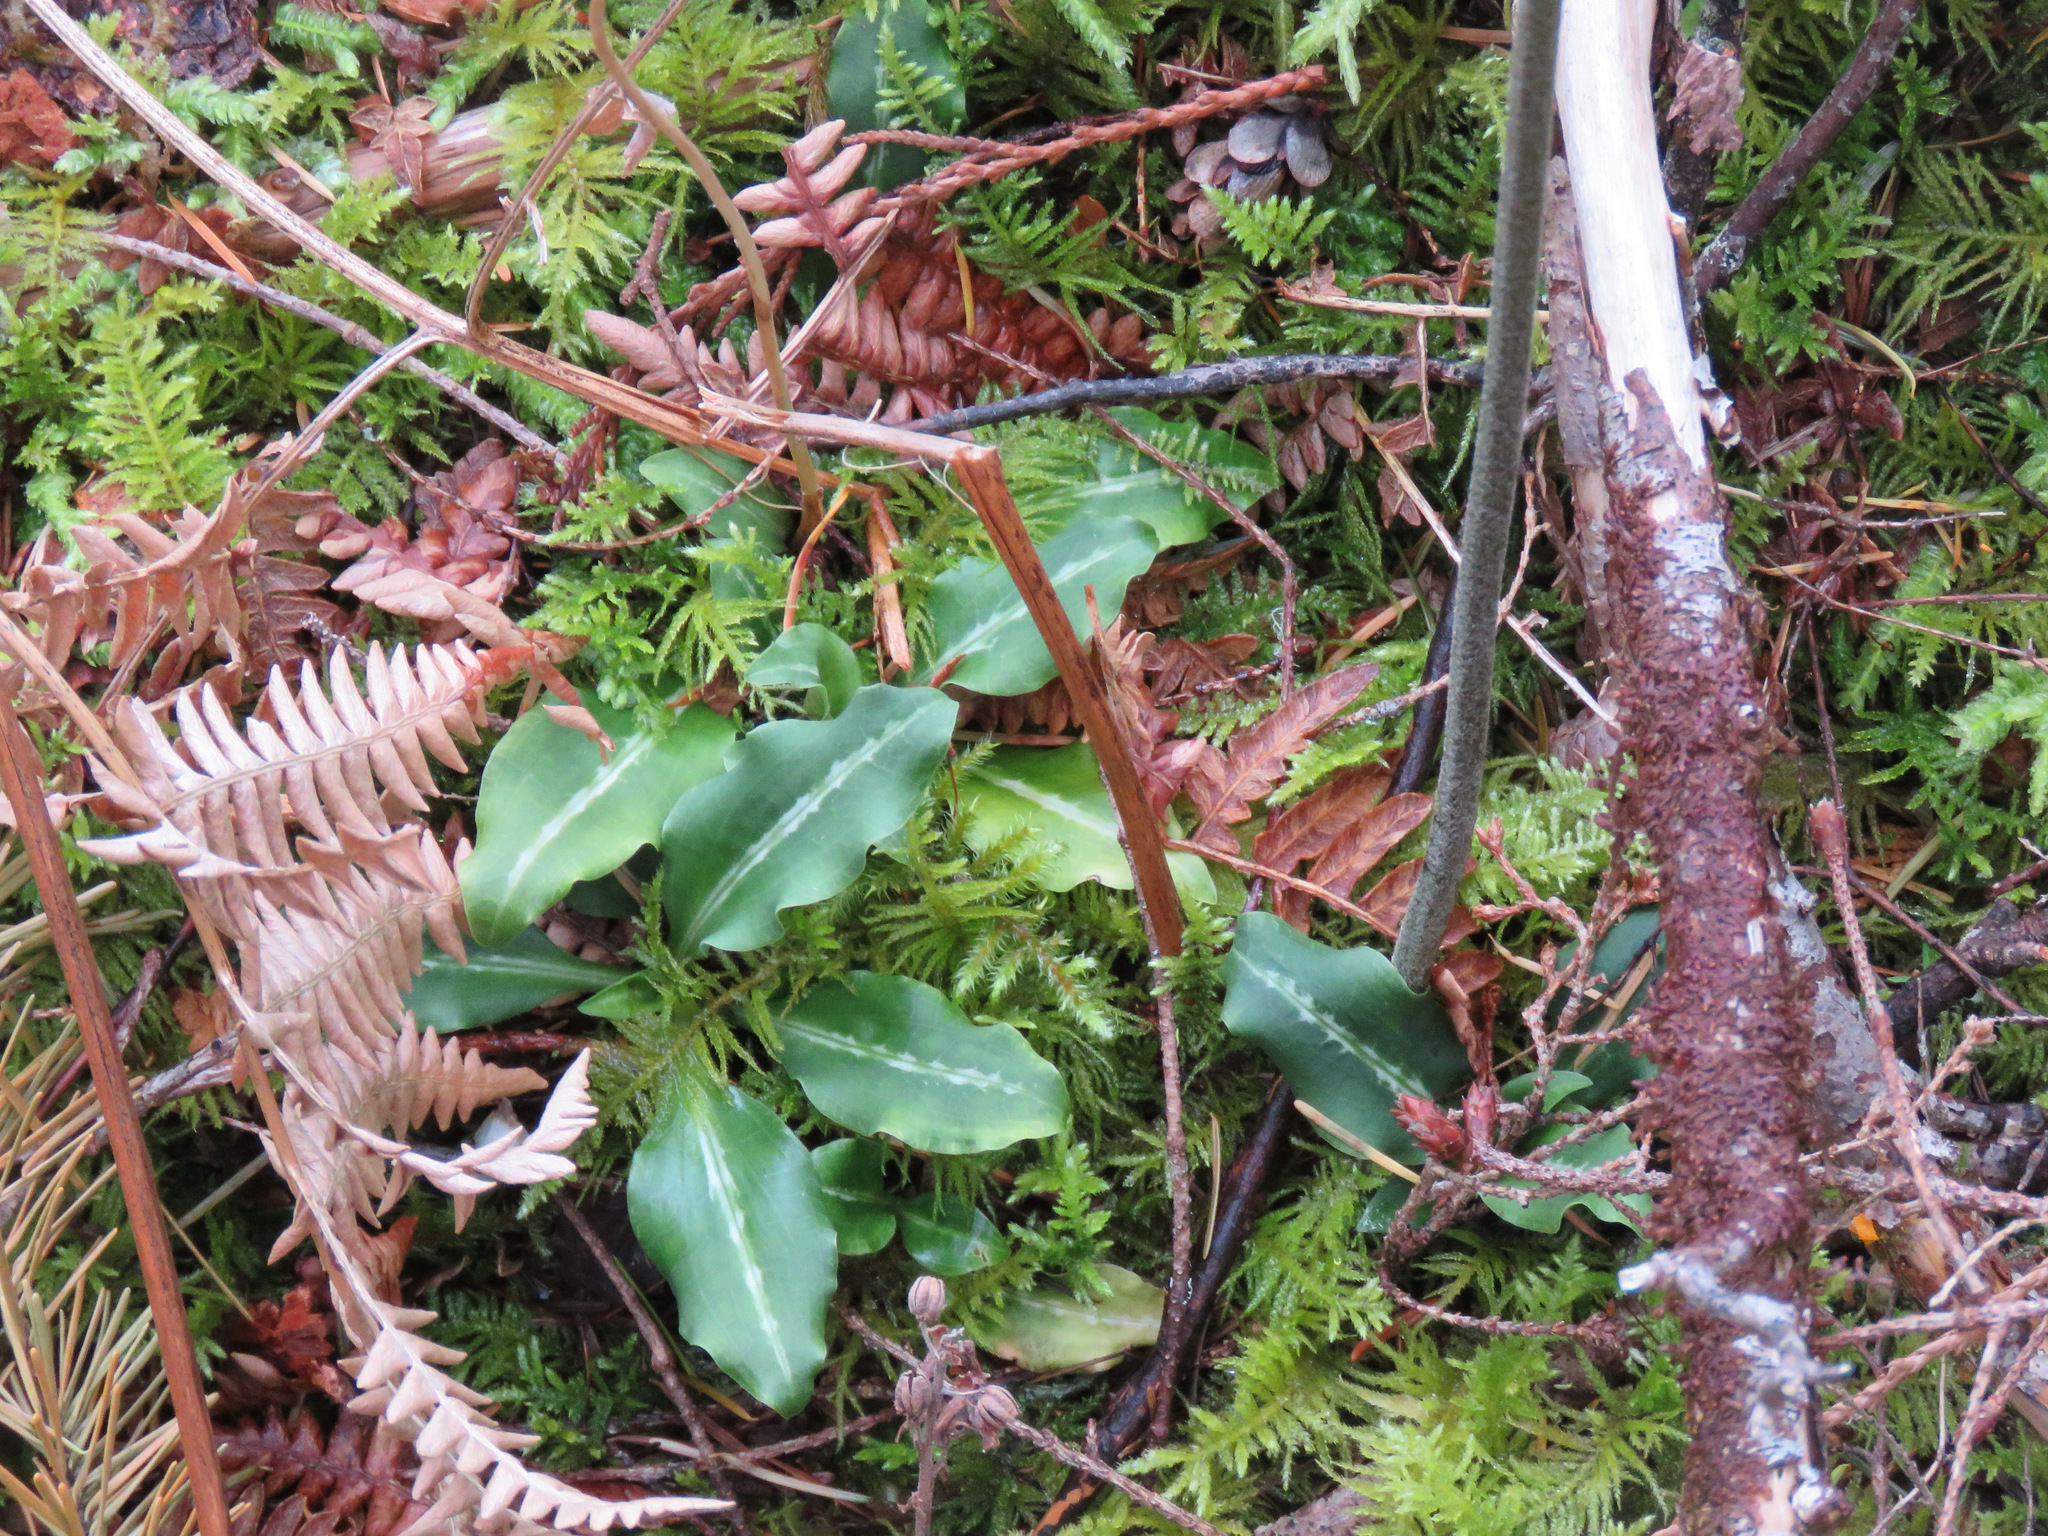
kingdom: Plantae
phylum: Tracheophyta
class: Liliopsida
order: Asparagales
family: Orchidaceae
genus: Goodyera
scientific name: Goodyera oblongifolia
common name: Giant rattlesnake-plantain
